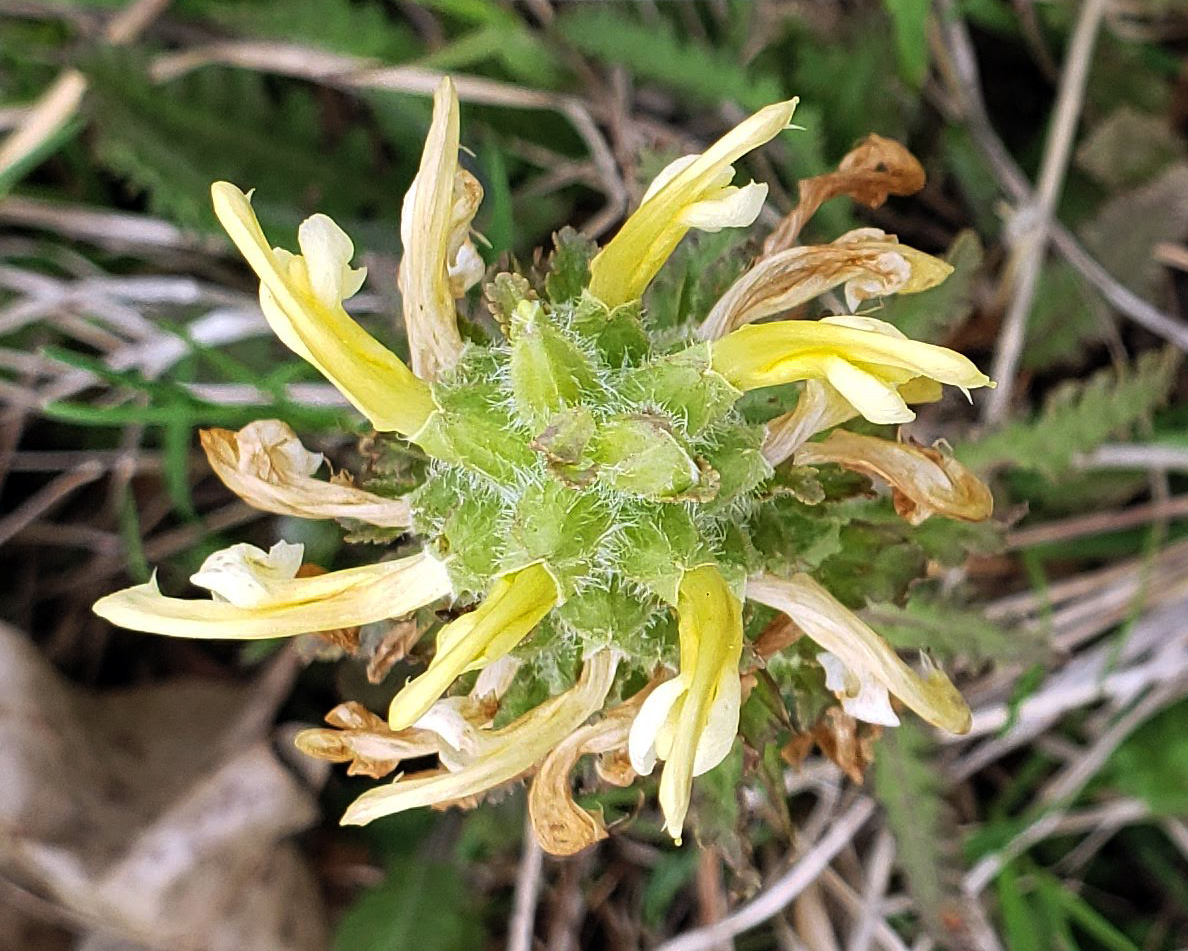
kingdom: Plantae
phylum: Tracheophyta
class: Magnoliopsida
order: Lamiales
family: Orobanchaceae
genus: Pedicularis
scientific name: Pedicularis canadensis
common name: Early lousewort
